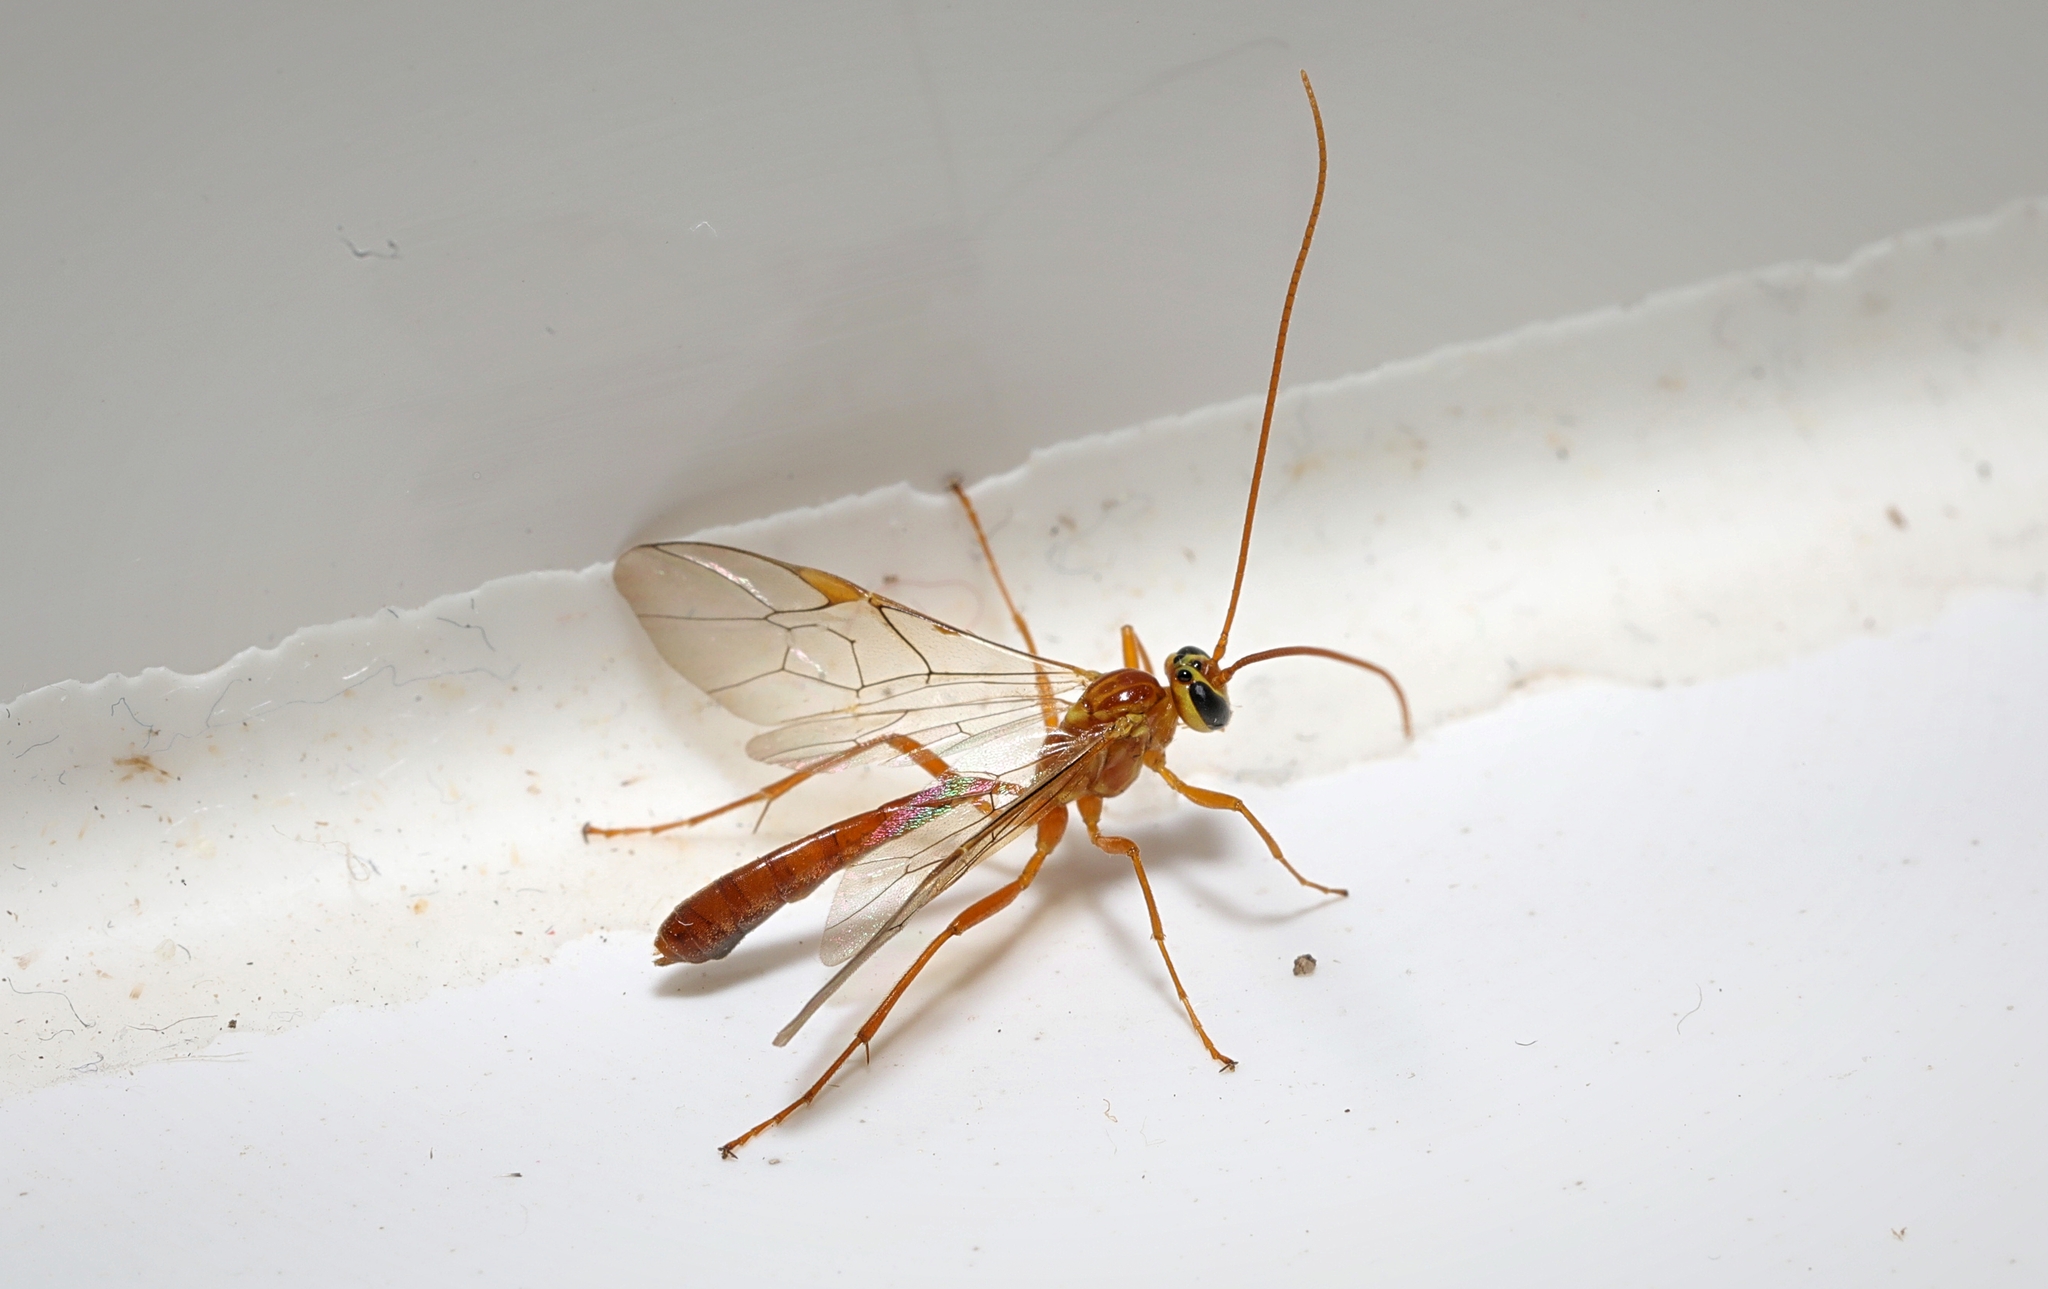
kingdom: Animalia
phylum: Arthropoda
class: Insecta
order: Hymenoptera
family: Ichneumonidae
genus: Ophion
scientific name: Ophion minutus
